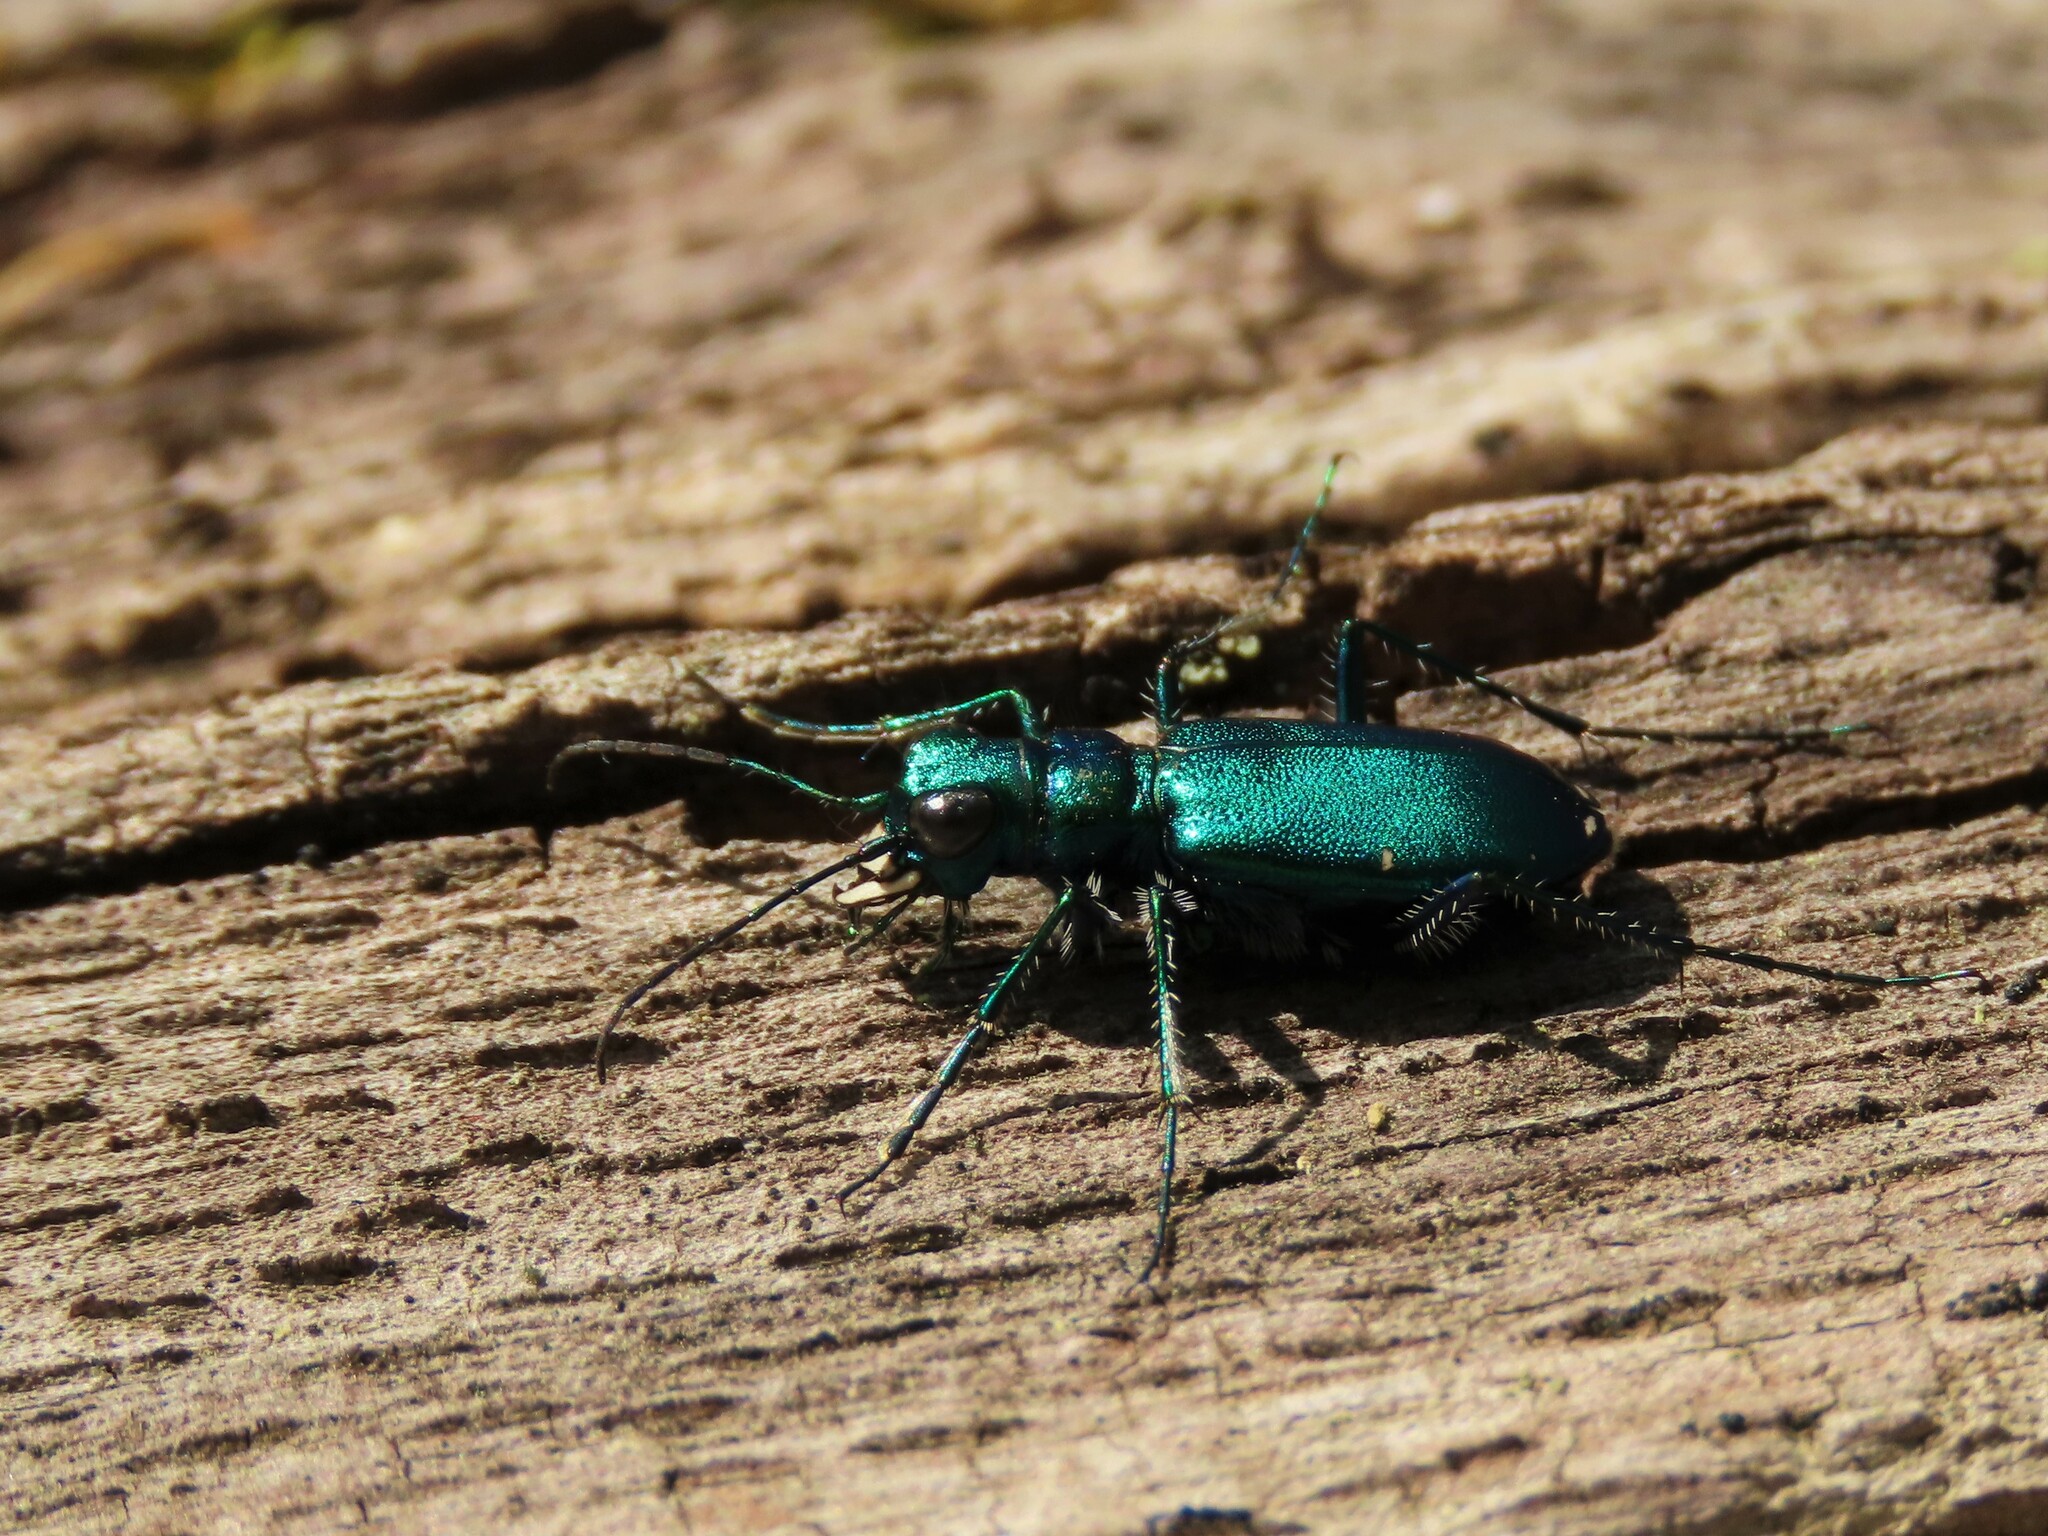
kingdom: Animalia
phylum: Arthropoda
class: Insecta
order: Coleoptera
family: Carabidae
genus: Cicindela
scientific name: Cicindela sexguttata
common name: Six-spotted tiger beetle
